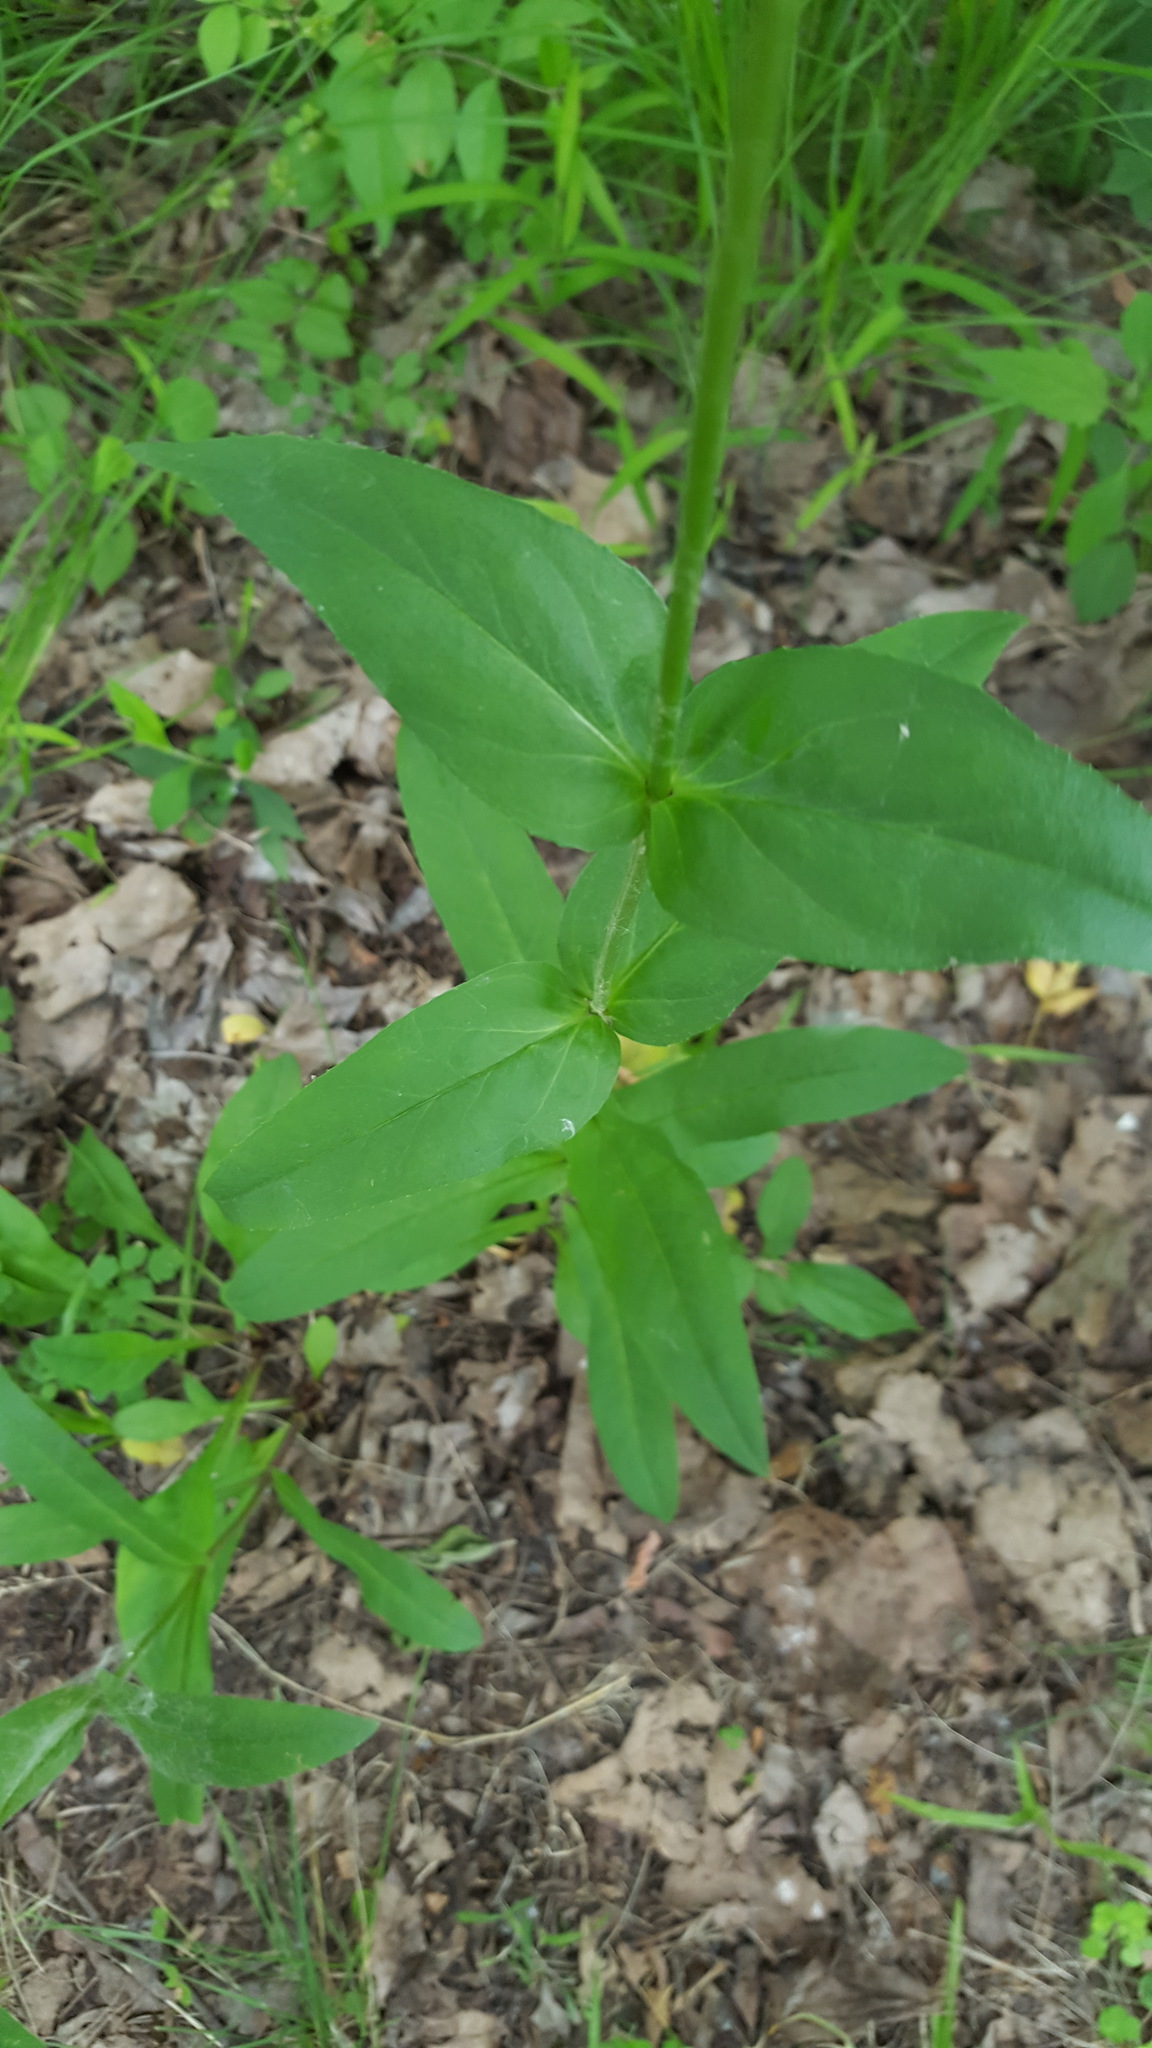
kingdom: Plantae
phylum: Tracheophyta
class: Magnoliopsida
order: Lamiales
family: Plantaginaceae
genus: Penstemon
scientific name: Penstemon digitalis
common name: Foxglove beardtongue
